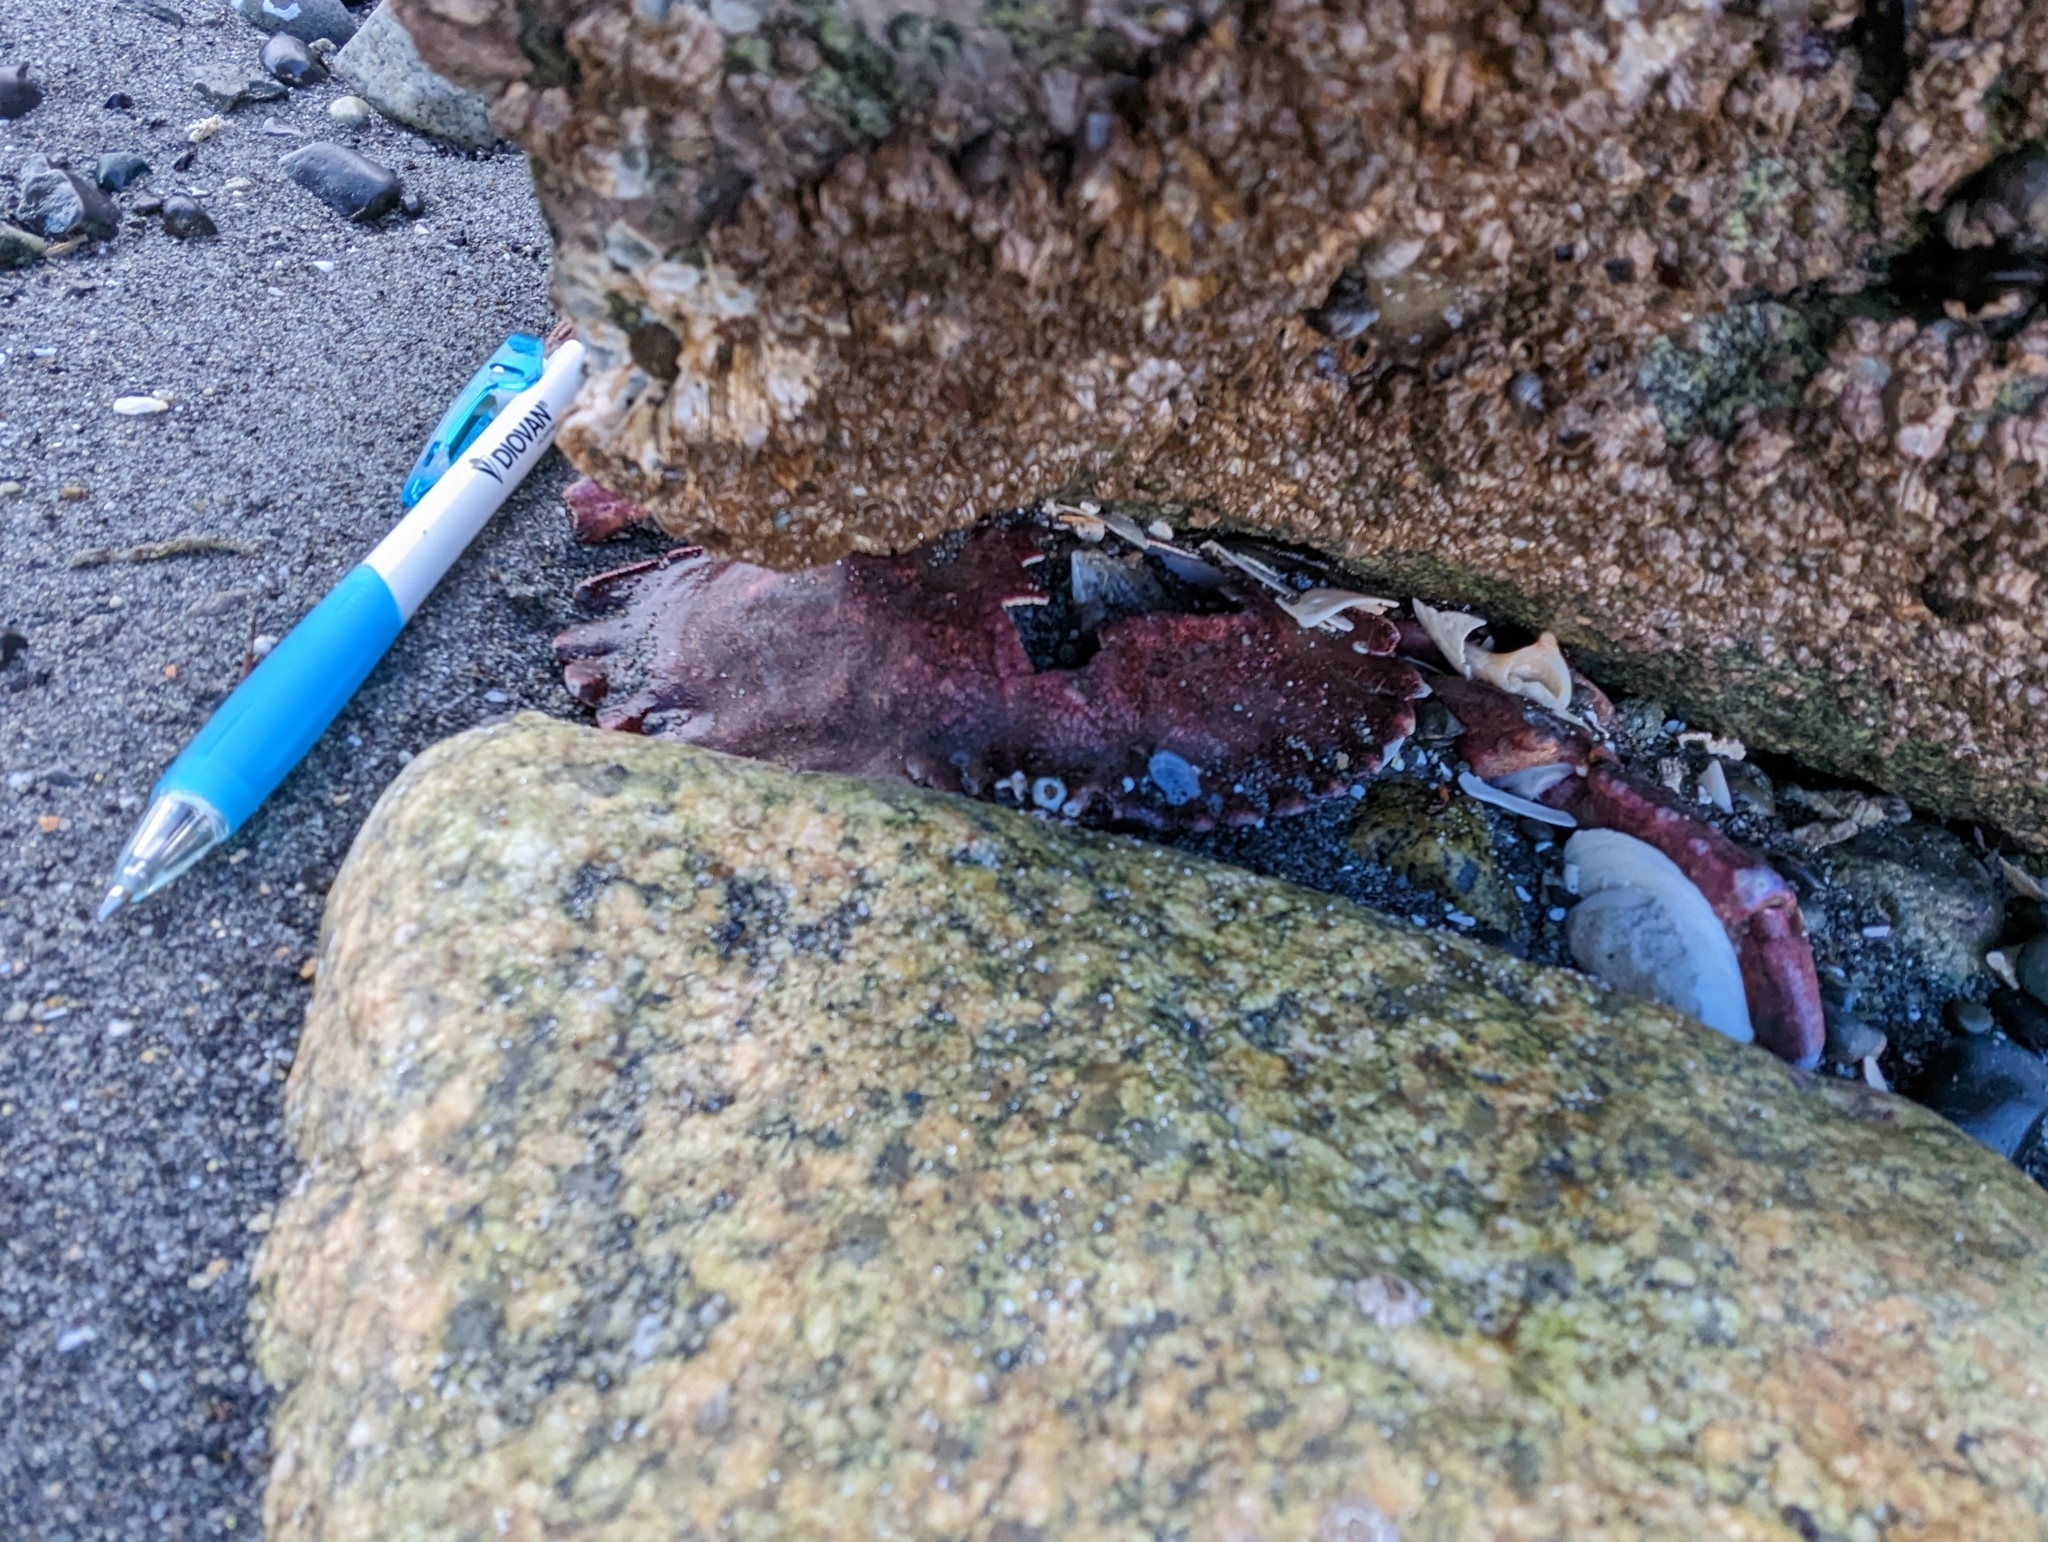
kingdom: Animalia
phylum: Arthropoda
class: Malacostraca
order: Decapoda
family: Cancridae
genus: Cancer
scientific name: Cancer productus
